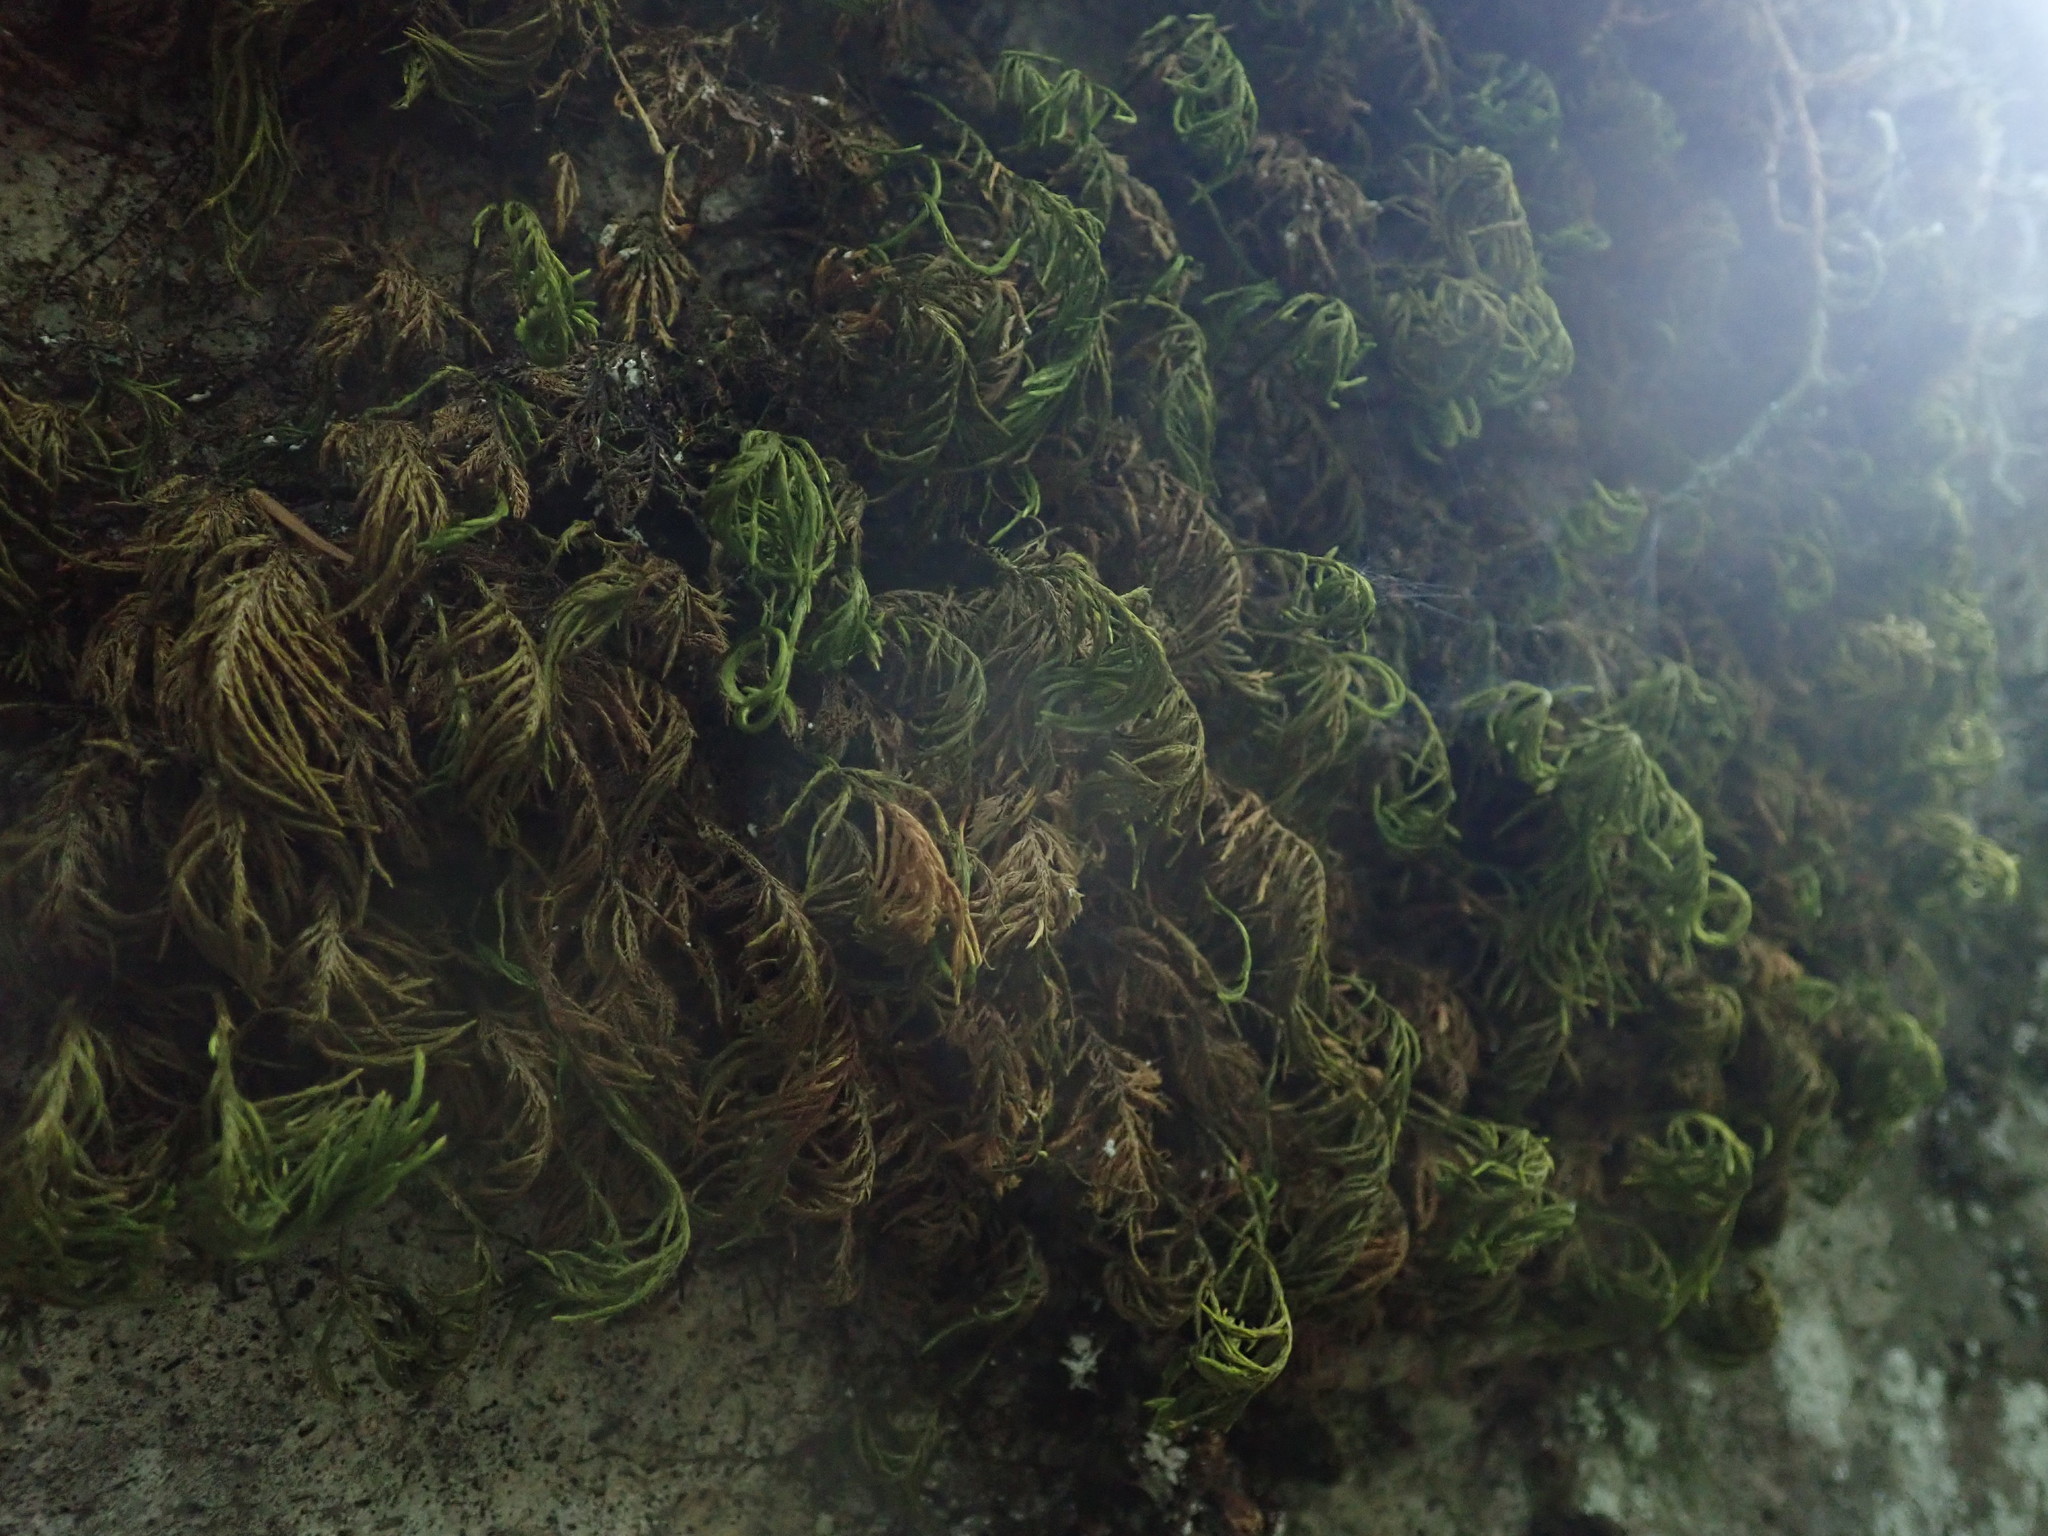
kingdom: Plantae
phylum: Bryophyta
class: Bryopsida
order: Hypnales
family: Cryphaeaceae
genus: Dendroalsia
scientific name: Dendroalsia abietina
